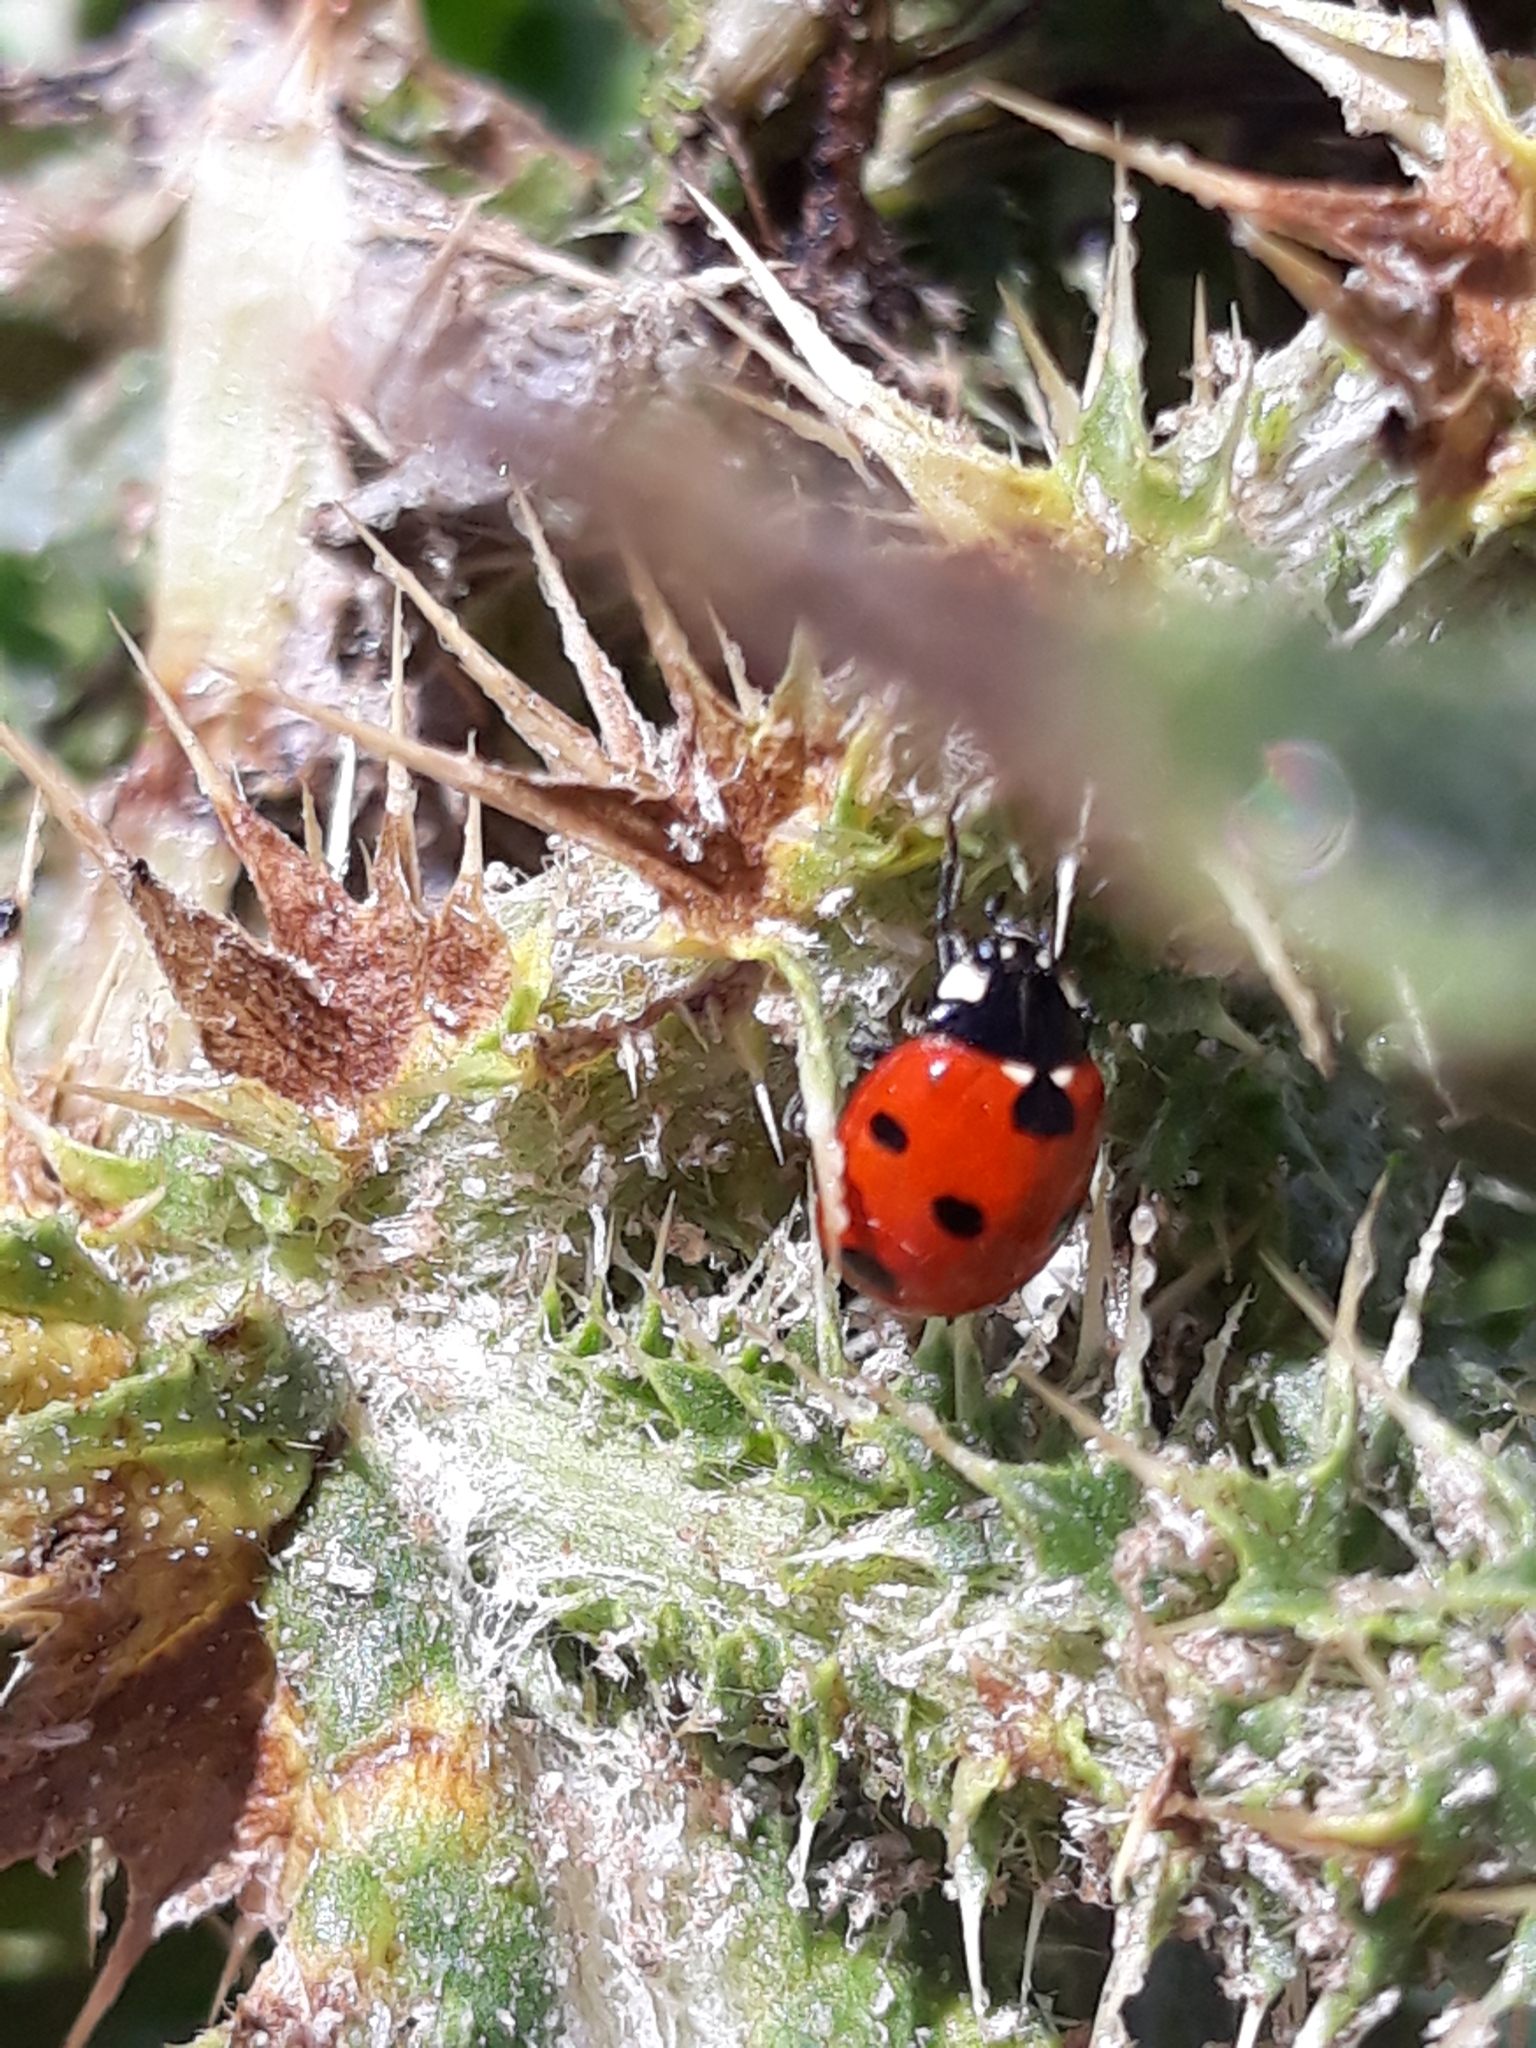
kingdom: Animalia
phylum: Arthropoda
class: Insecta
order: Coleoptera
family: Coccinellidae
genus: Coccinella
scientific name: Coccinella algerica
